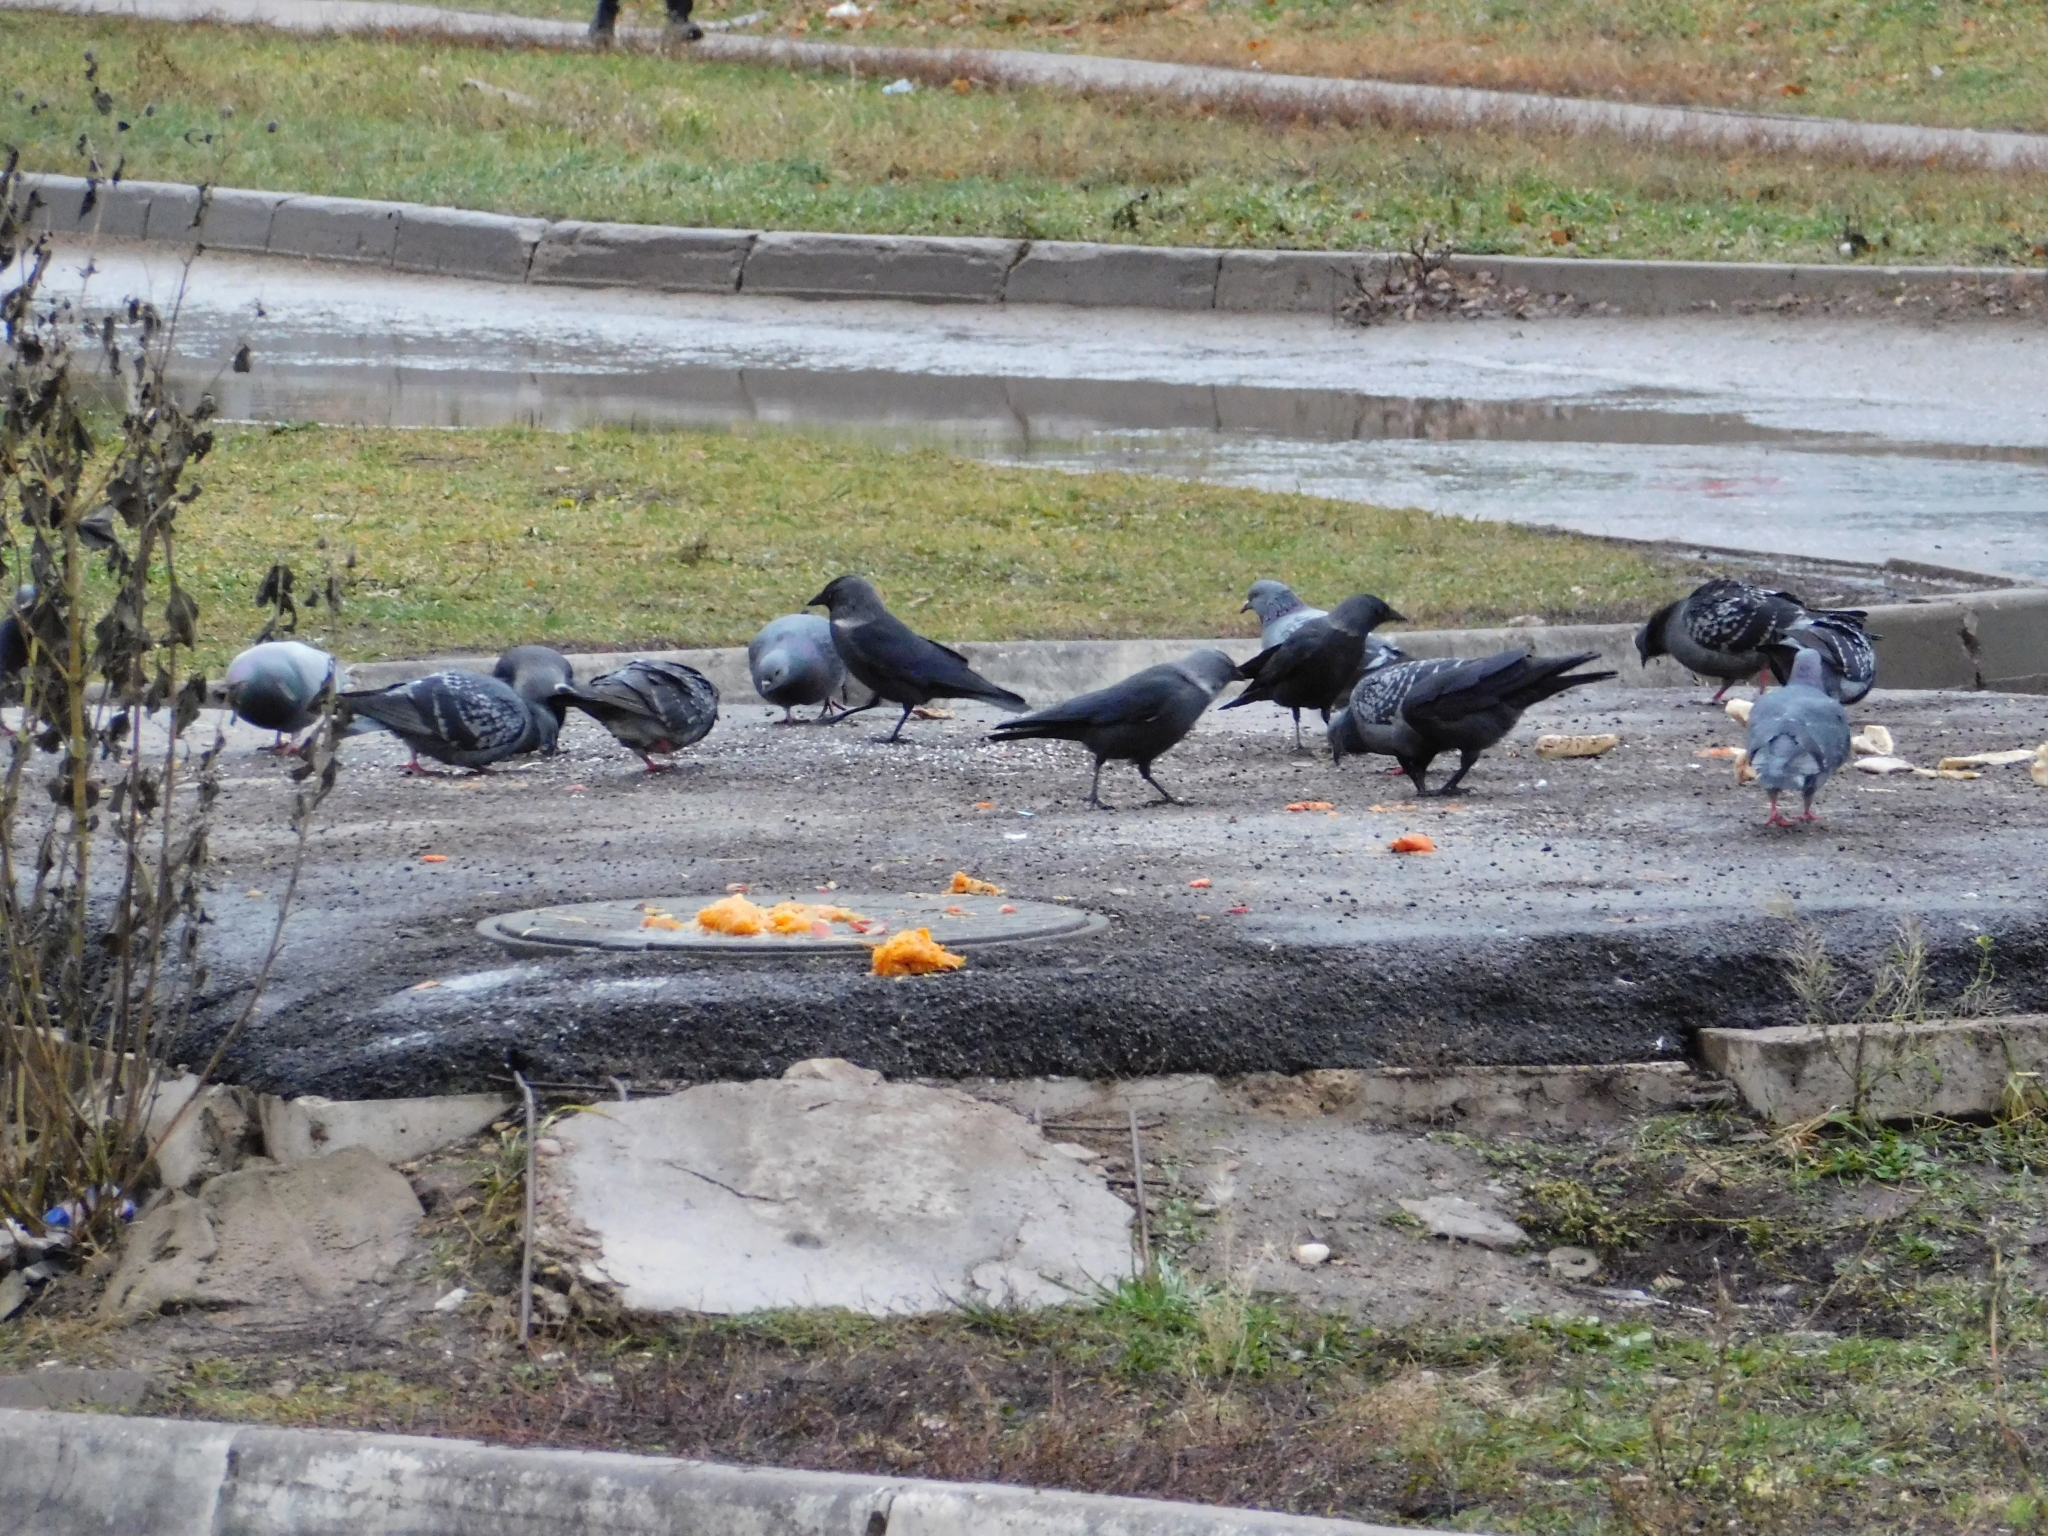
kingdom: Animalia
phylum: Chordata
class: Aves
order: Passeriformes
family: Corvidae
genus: Coloeus
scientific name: Coloeus monedula
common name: Western jackdaw
